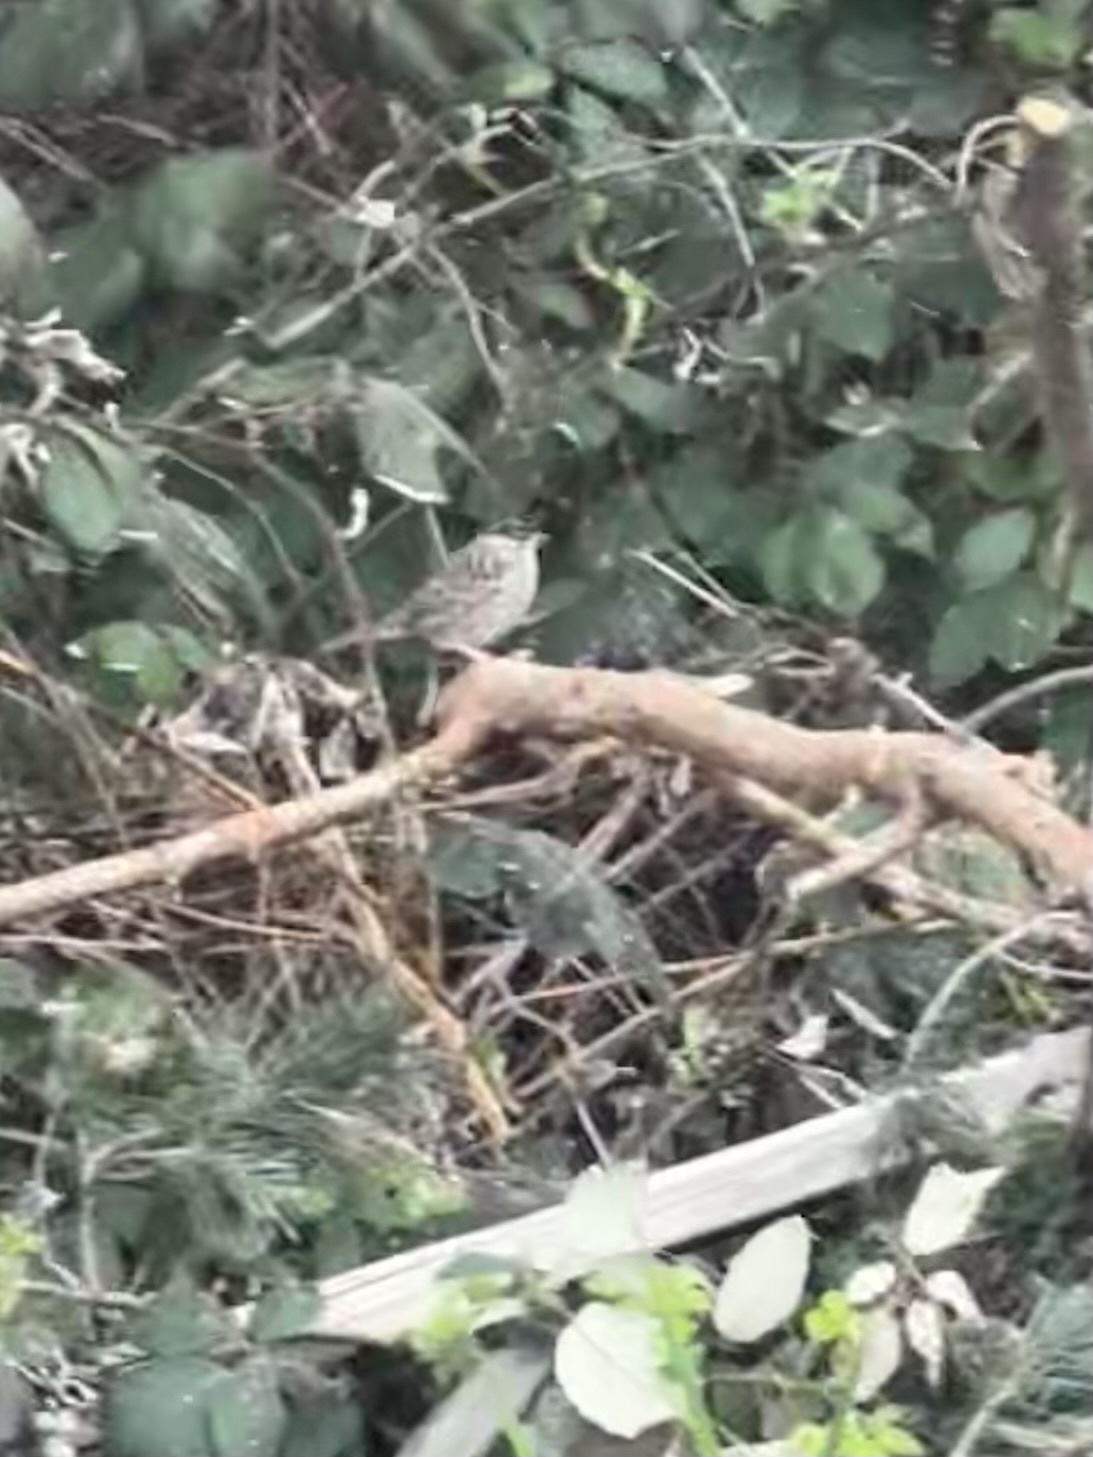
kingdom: Animalia
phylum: Chordata
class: Aves
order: Passeriformes
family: Passerellidae
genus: Zonotrichia
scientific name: Zonotrichia atricapilla
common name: Golden-crowned sparrow
